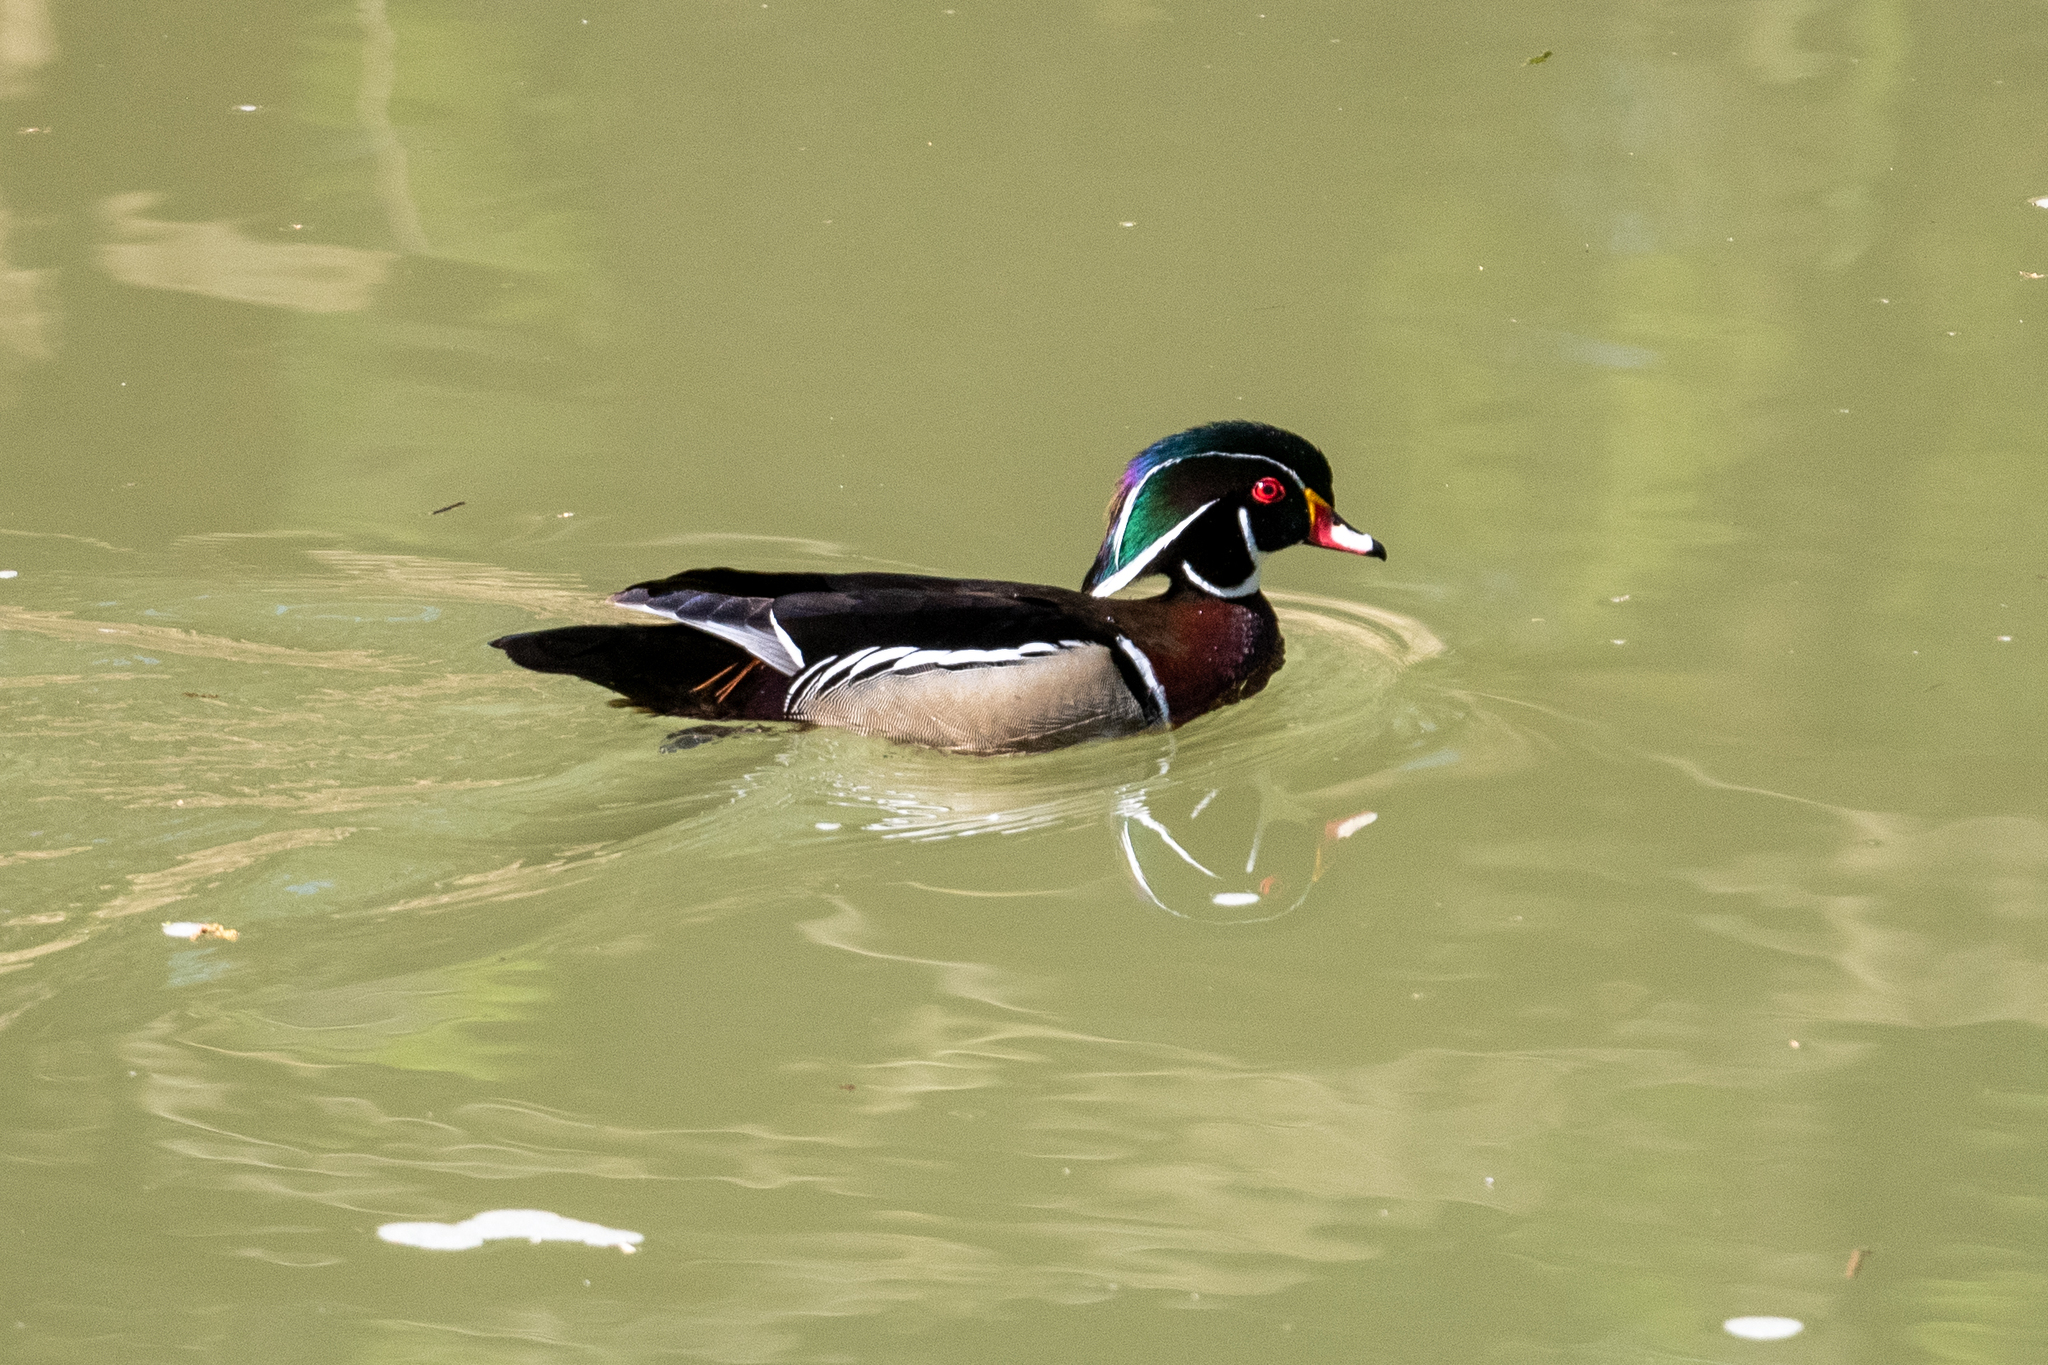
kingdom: Animalia
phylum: Chordata
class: Aves
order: Anseriformes
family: Anatidae
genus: Aix
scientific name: Aix sponsa
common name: Wood duck
